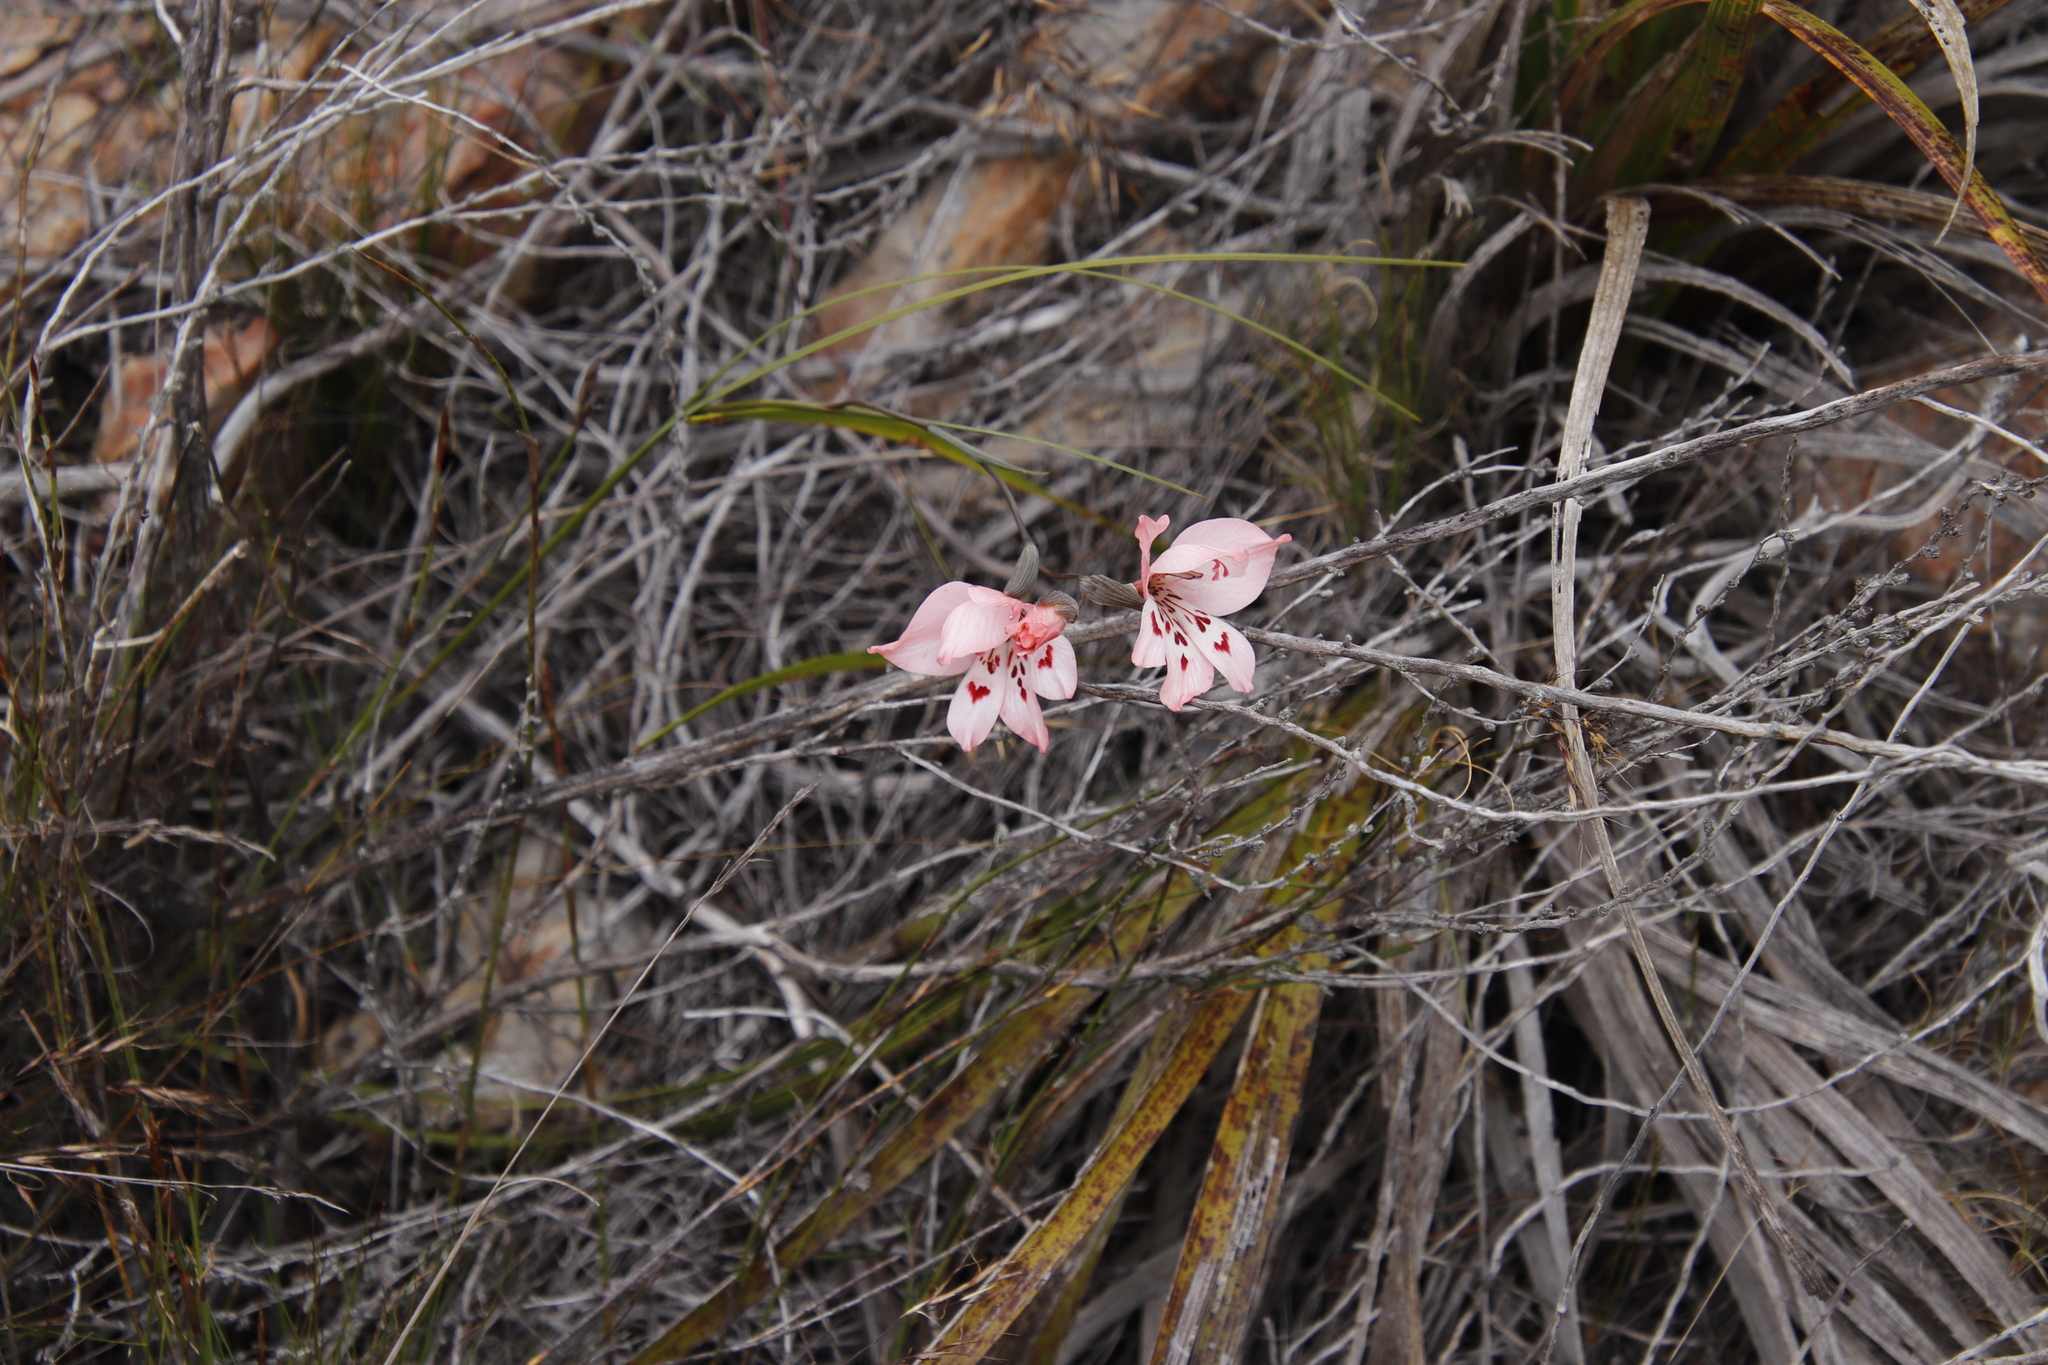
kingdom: Plantae
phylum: Tracheophyta
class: Liliopsida
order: Asparagales
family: Iridaceae
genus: Gladiolus
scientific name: Gladiolus debilis
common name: Painted-lady
